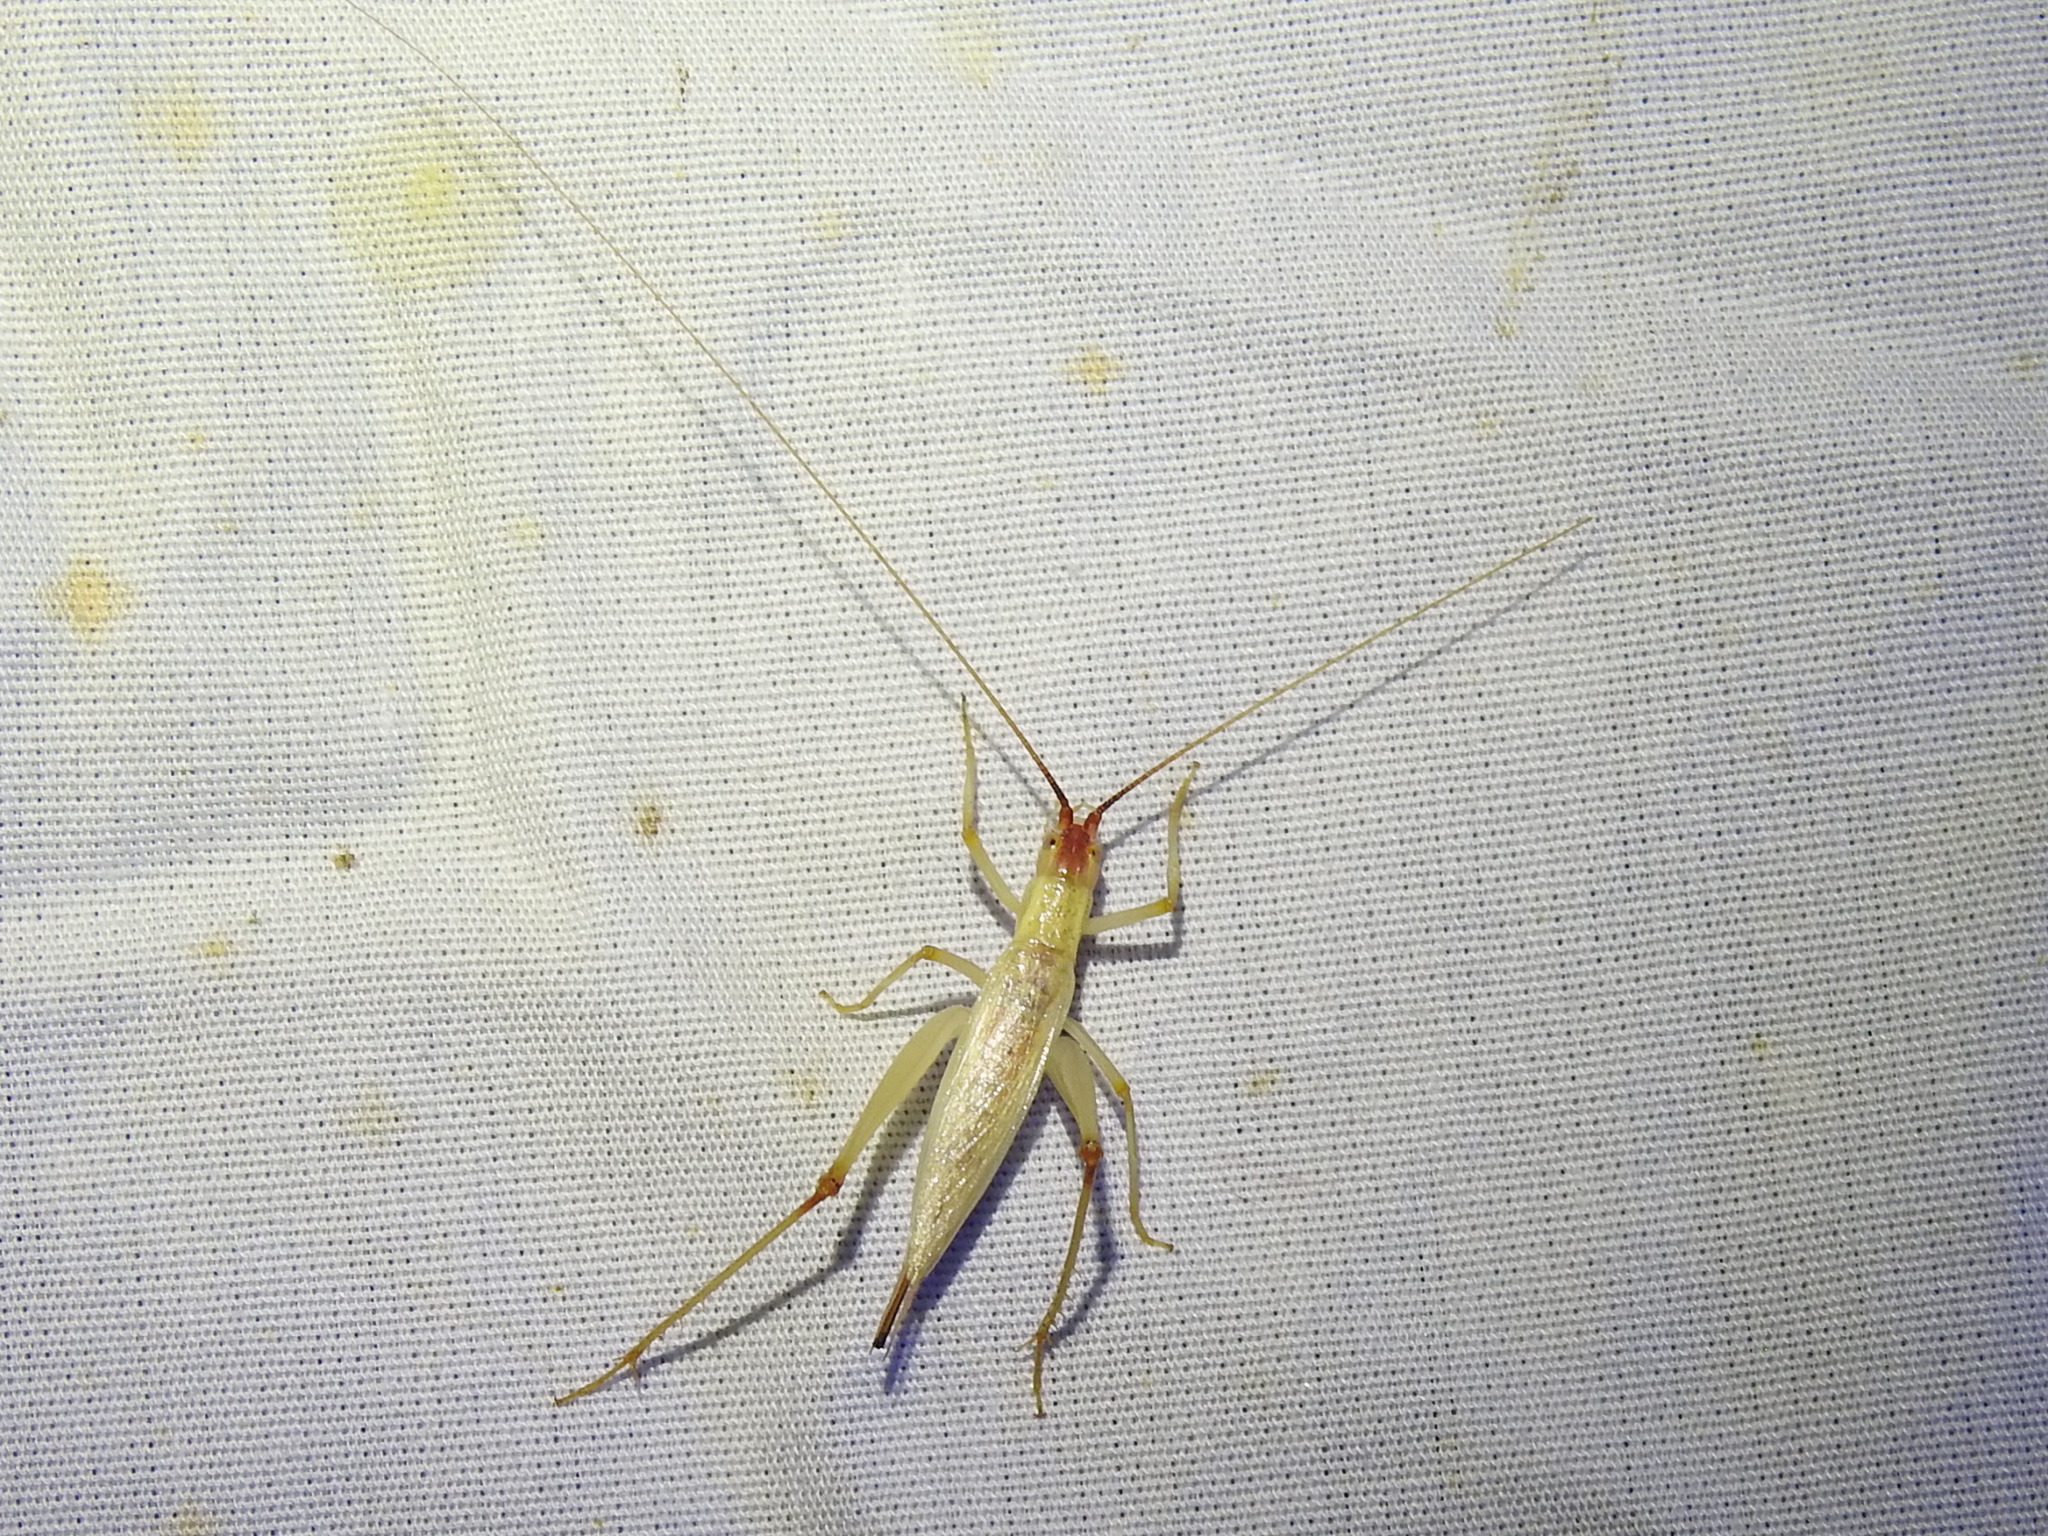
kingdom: Animalia
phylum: Arthropoda
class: Insecta
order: Orthoptera
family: Gryllidae
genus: Oecanthus
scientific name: Oecanthus latipennis
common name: Broad-winged tree cricket
